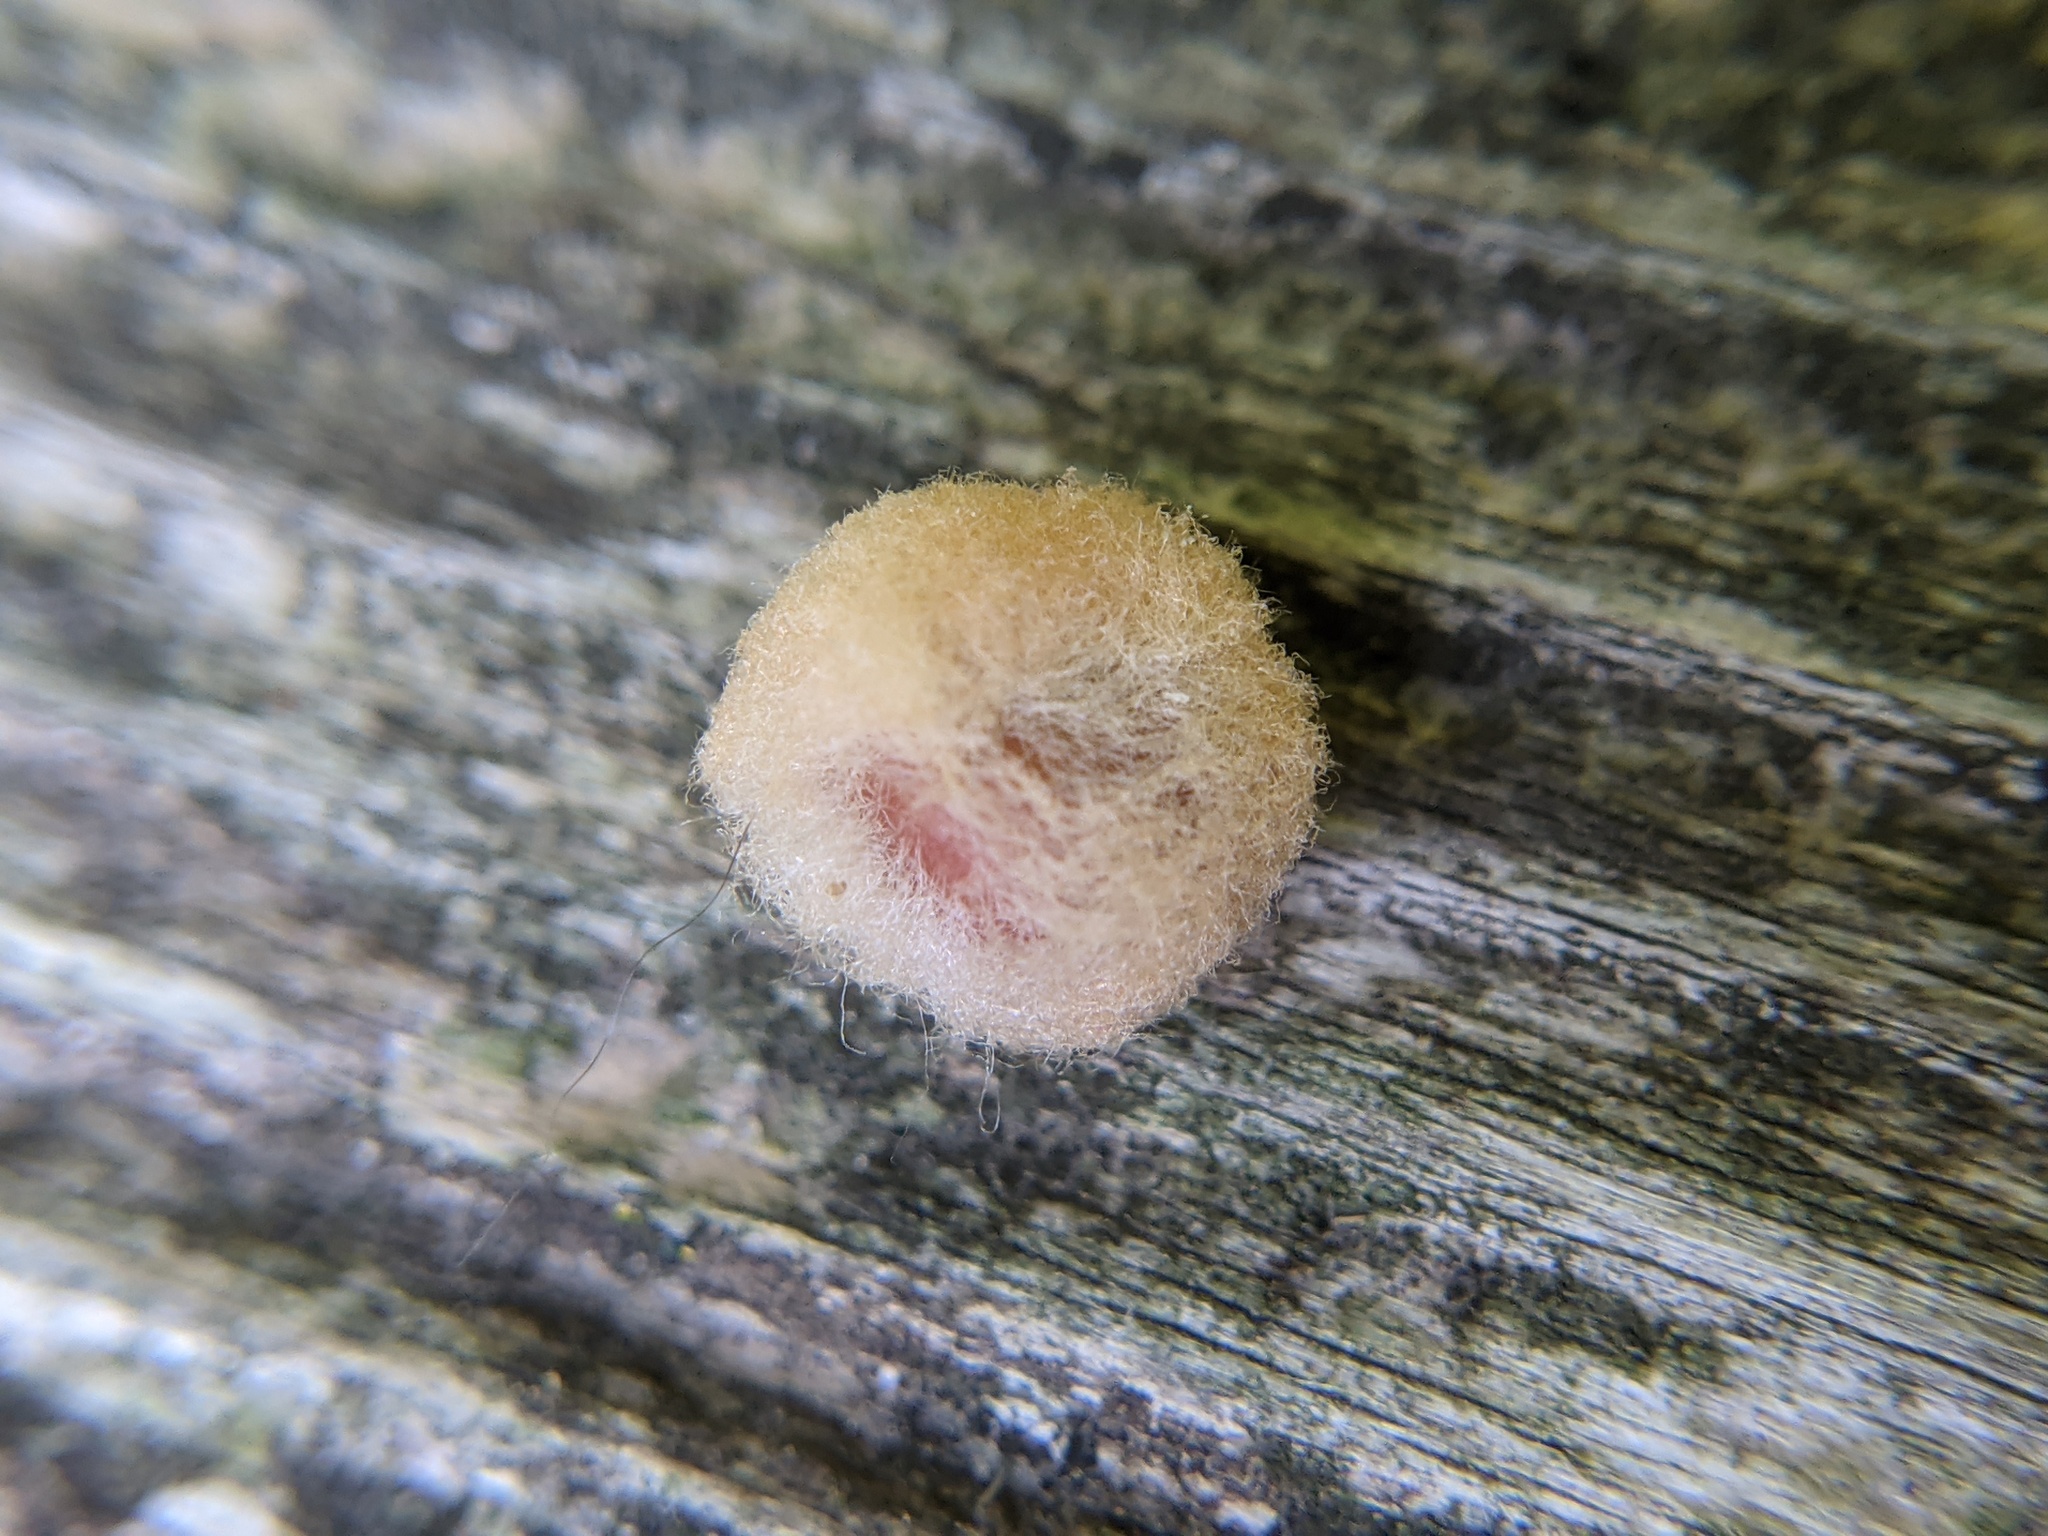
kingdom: Animalia
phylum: Arthropoda
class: Insecta
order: Hymenoptera
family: Cynipidae
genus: Callirhytis
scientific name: Callirhytis
